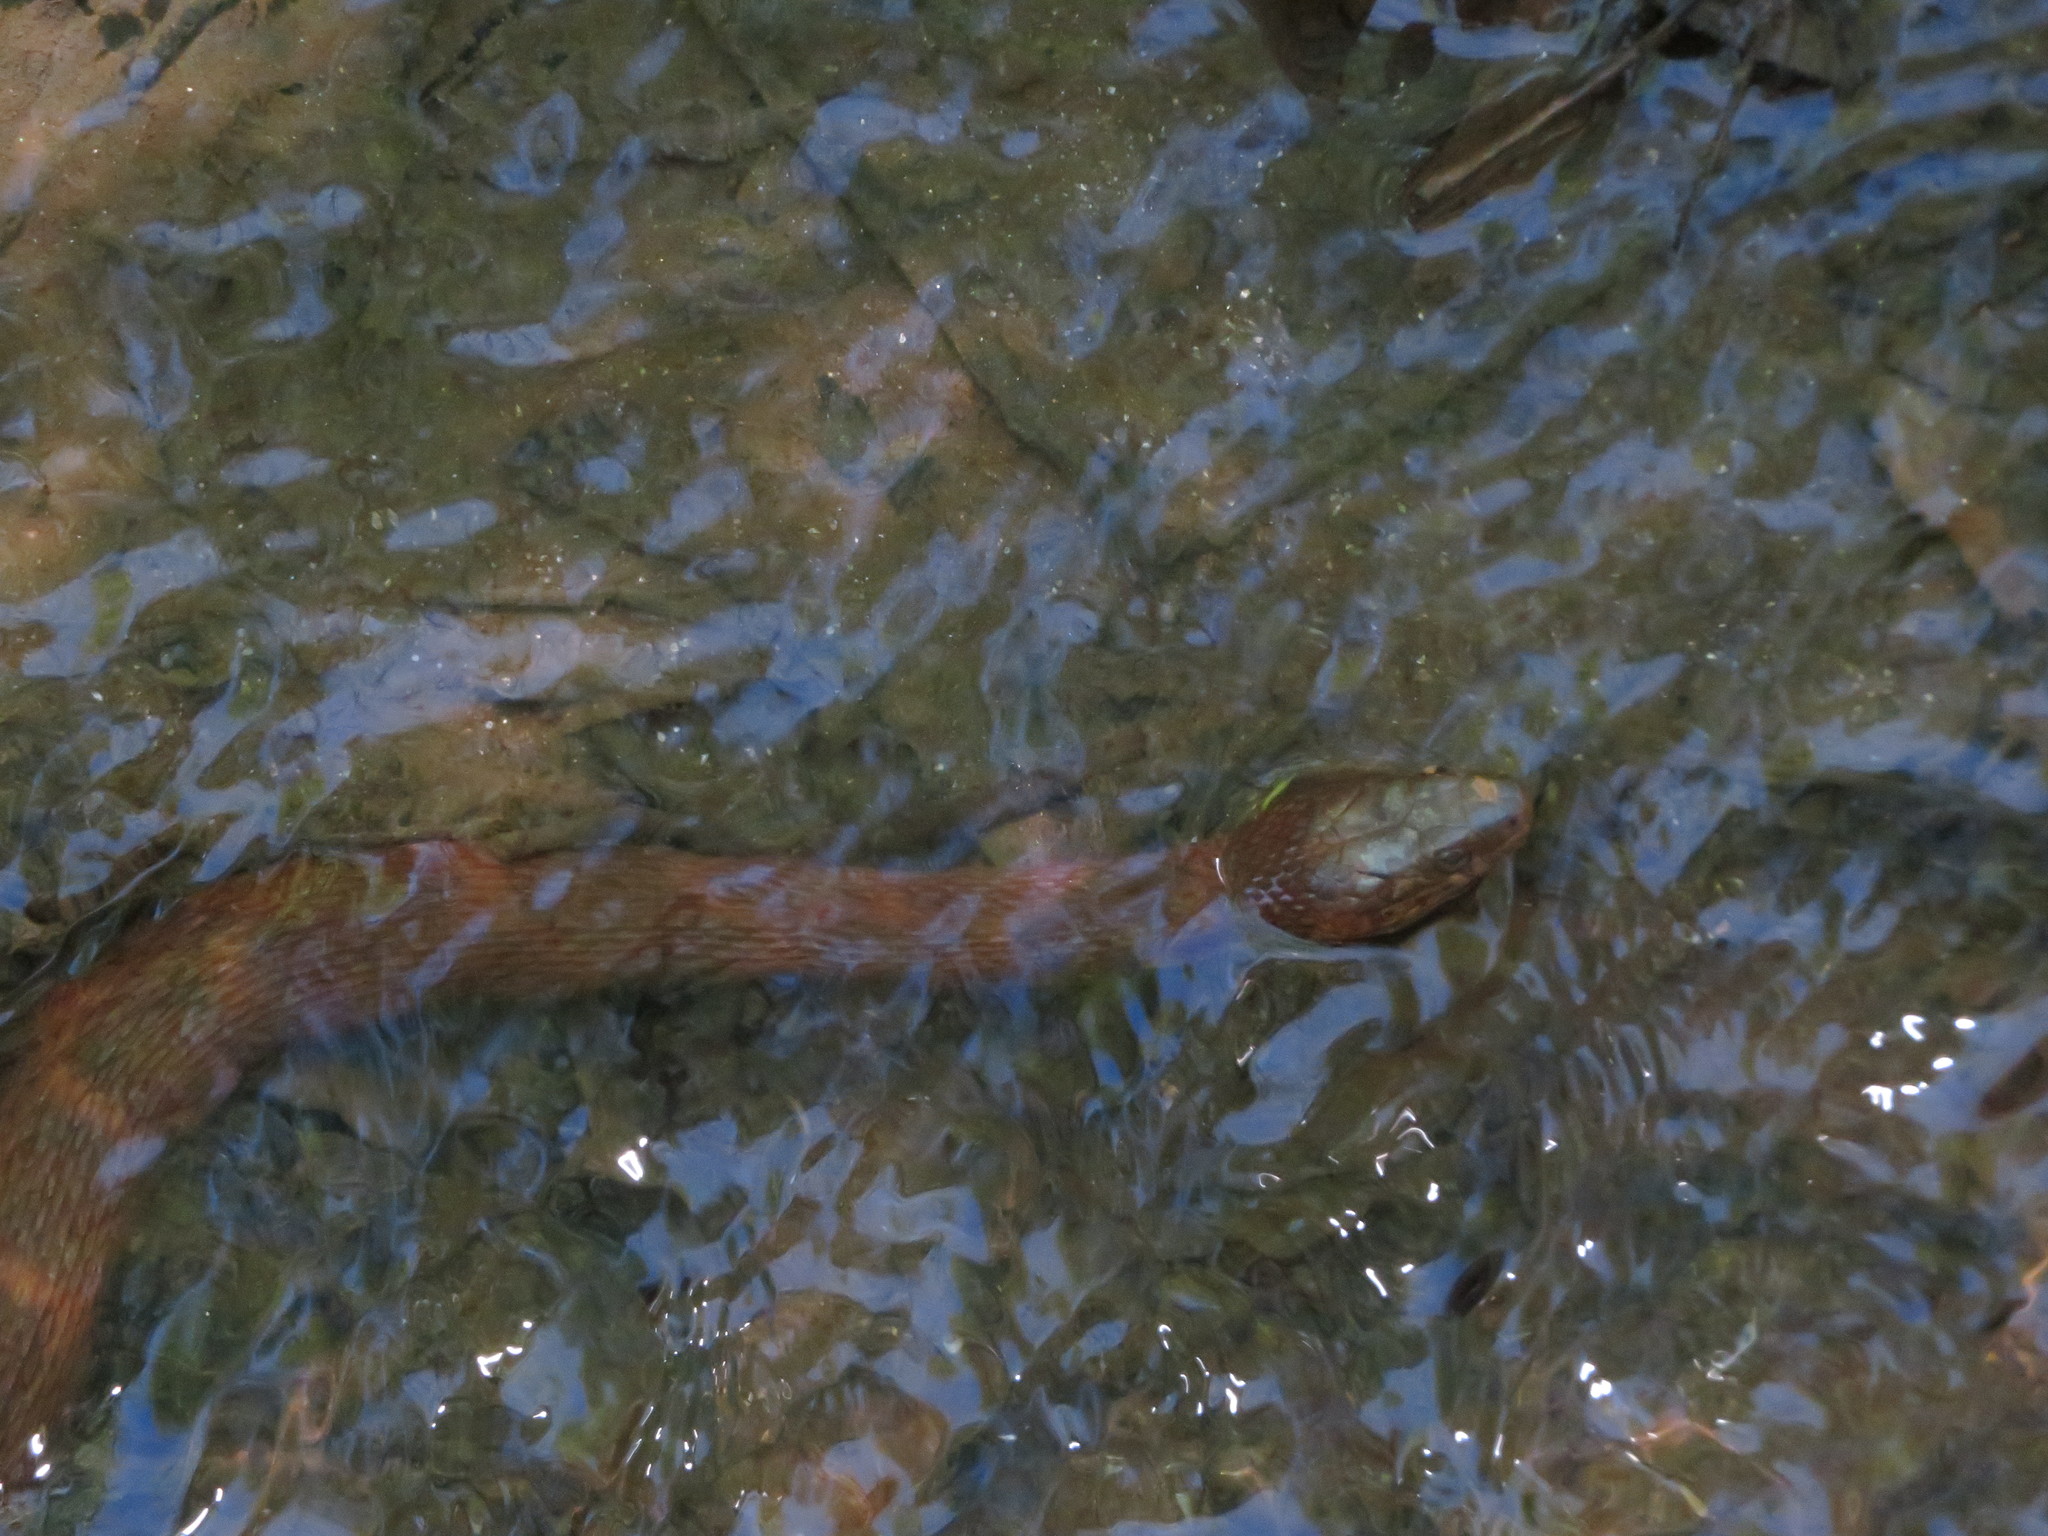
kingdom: Animalia
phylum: Chordata
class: Squamata
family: Colubridae
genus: Nerodia
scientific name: Nerodia sipedon
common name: Northern water snake
